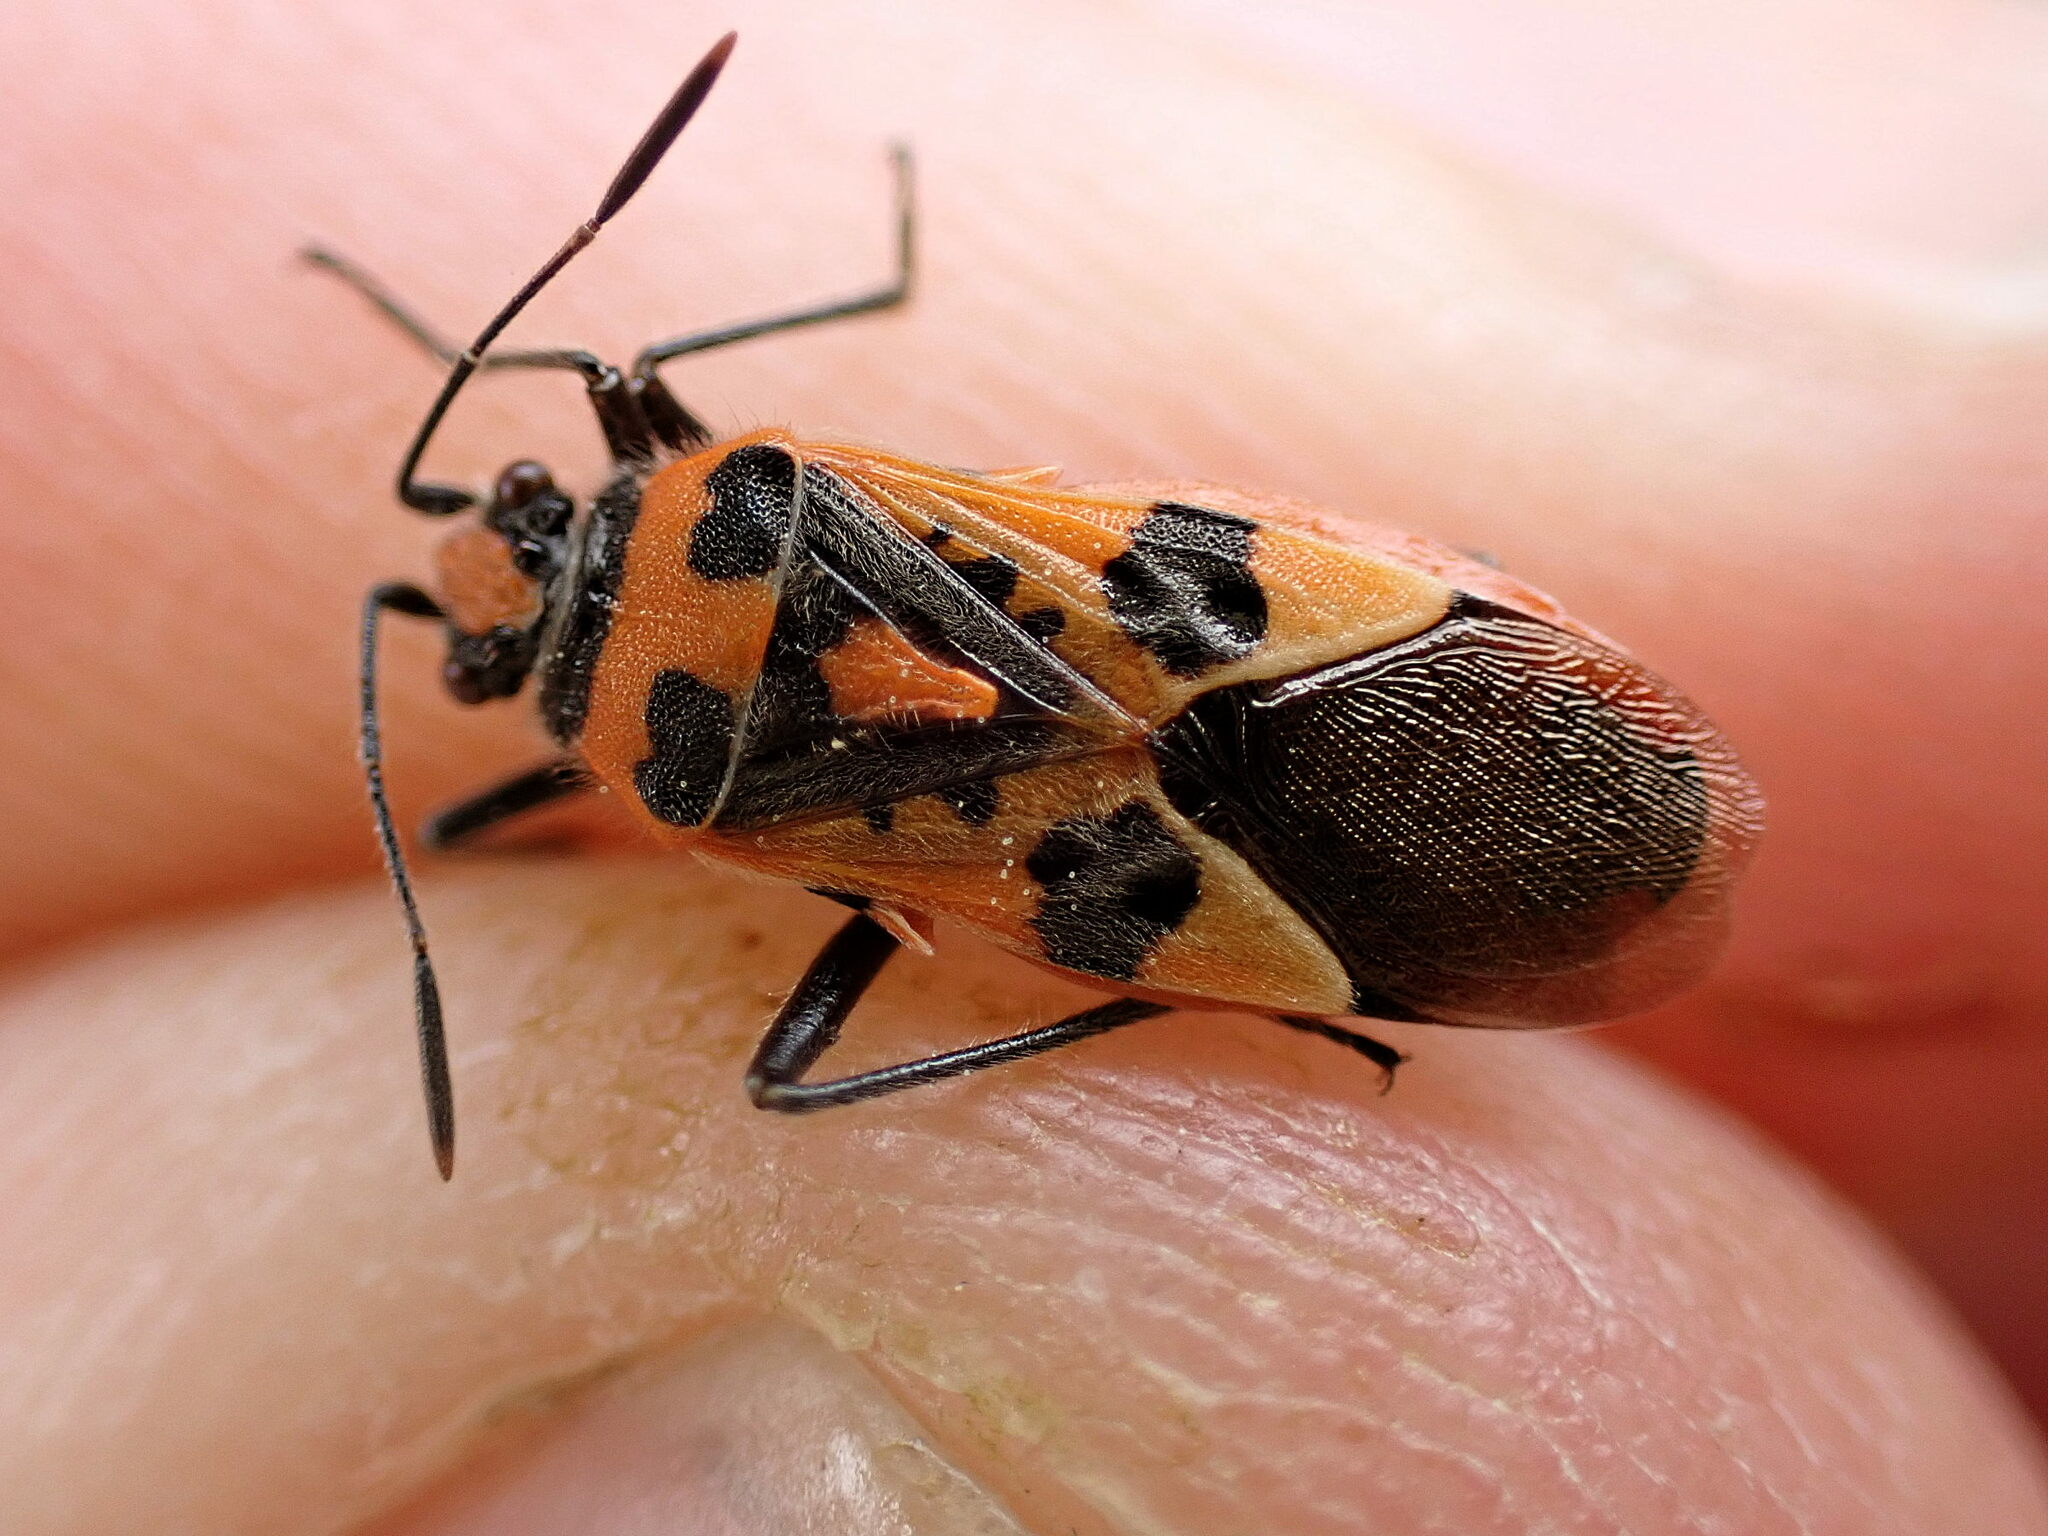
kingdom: Animalia
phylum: Arthropoda
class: Insecta
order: Hemiptera
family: Rhopalidae
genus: Corizus
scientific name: Corizus hyoscyami
